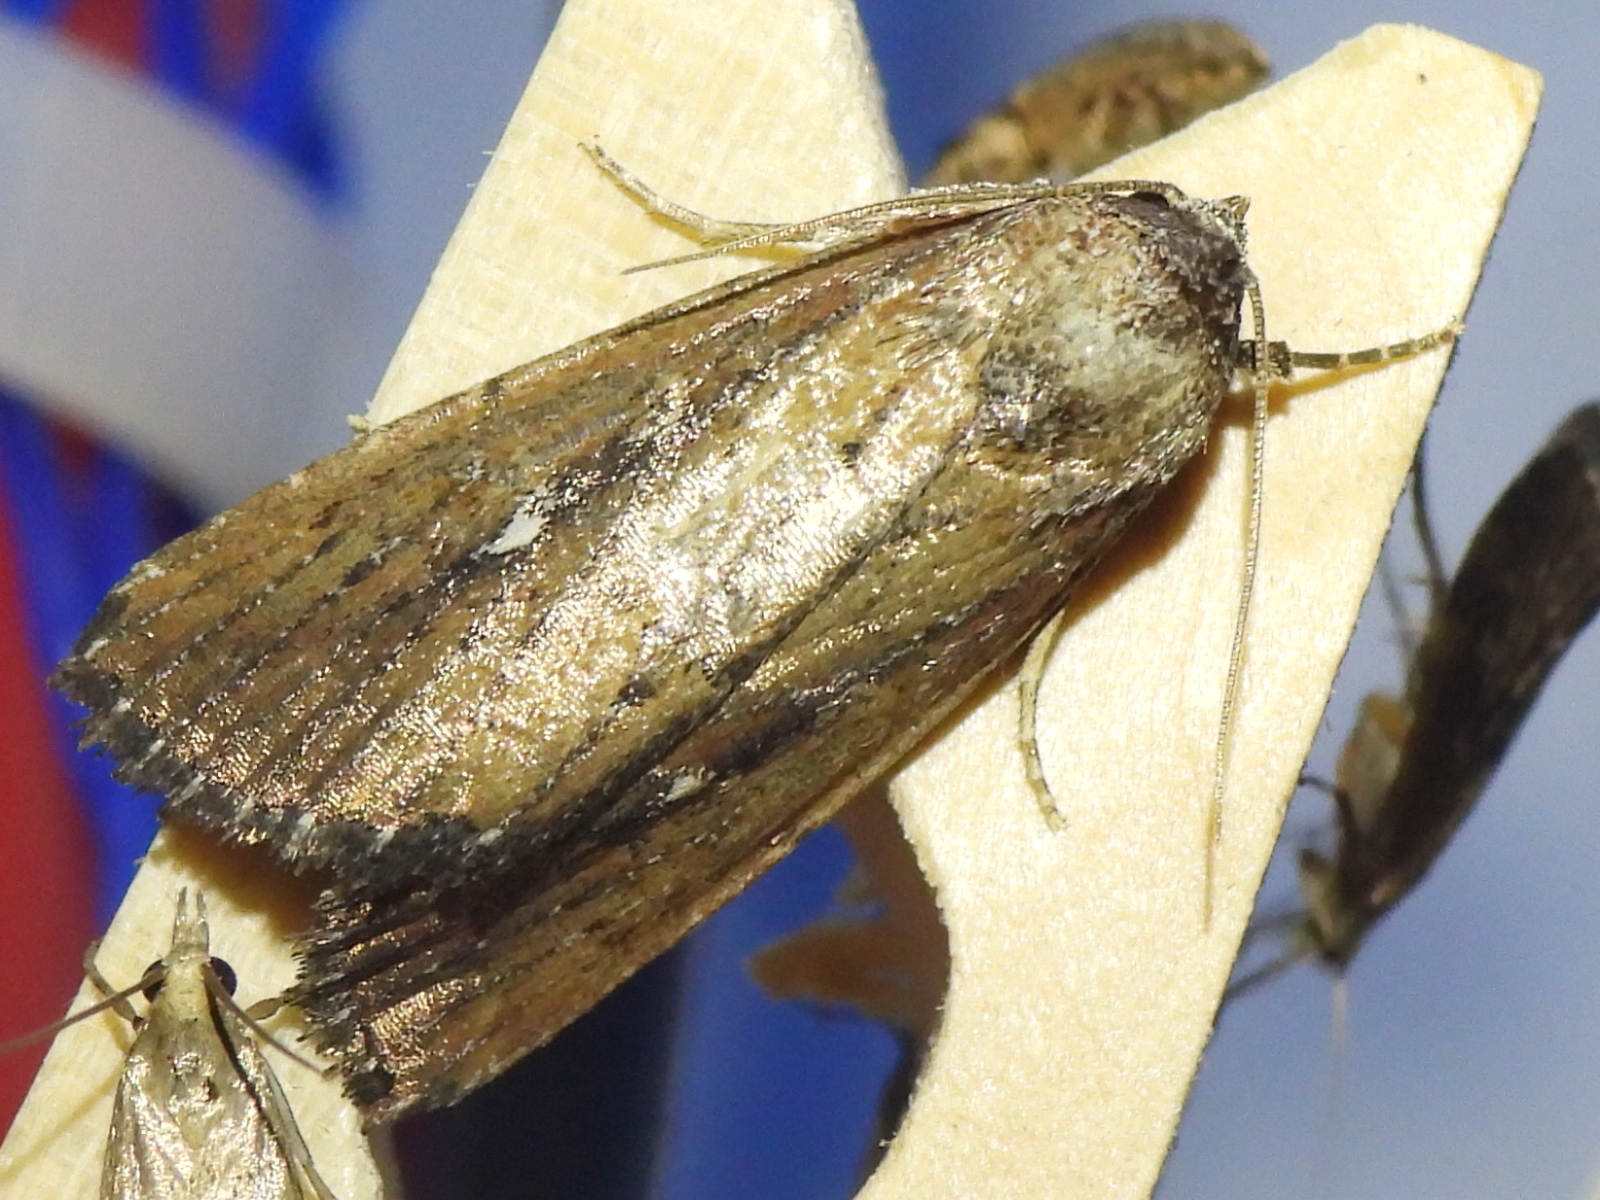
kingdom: Animalia
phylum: Arthropoda
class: Insecta
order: Lepidoptera
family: Noctuidae
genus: Condica
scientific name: Condica videns
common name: White-dotted groundling
